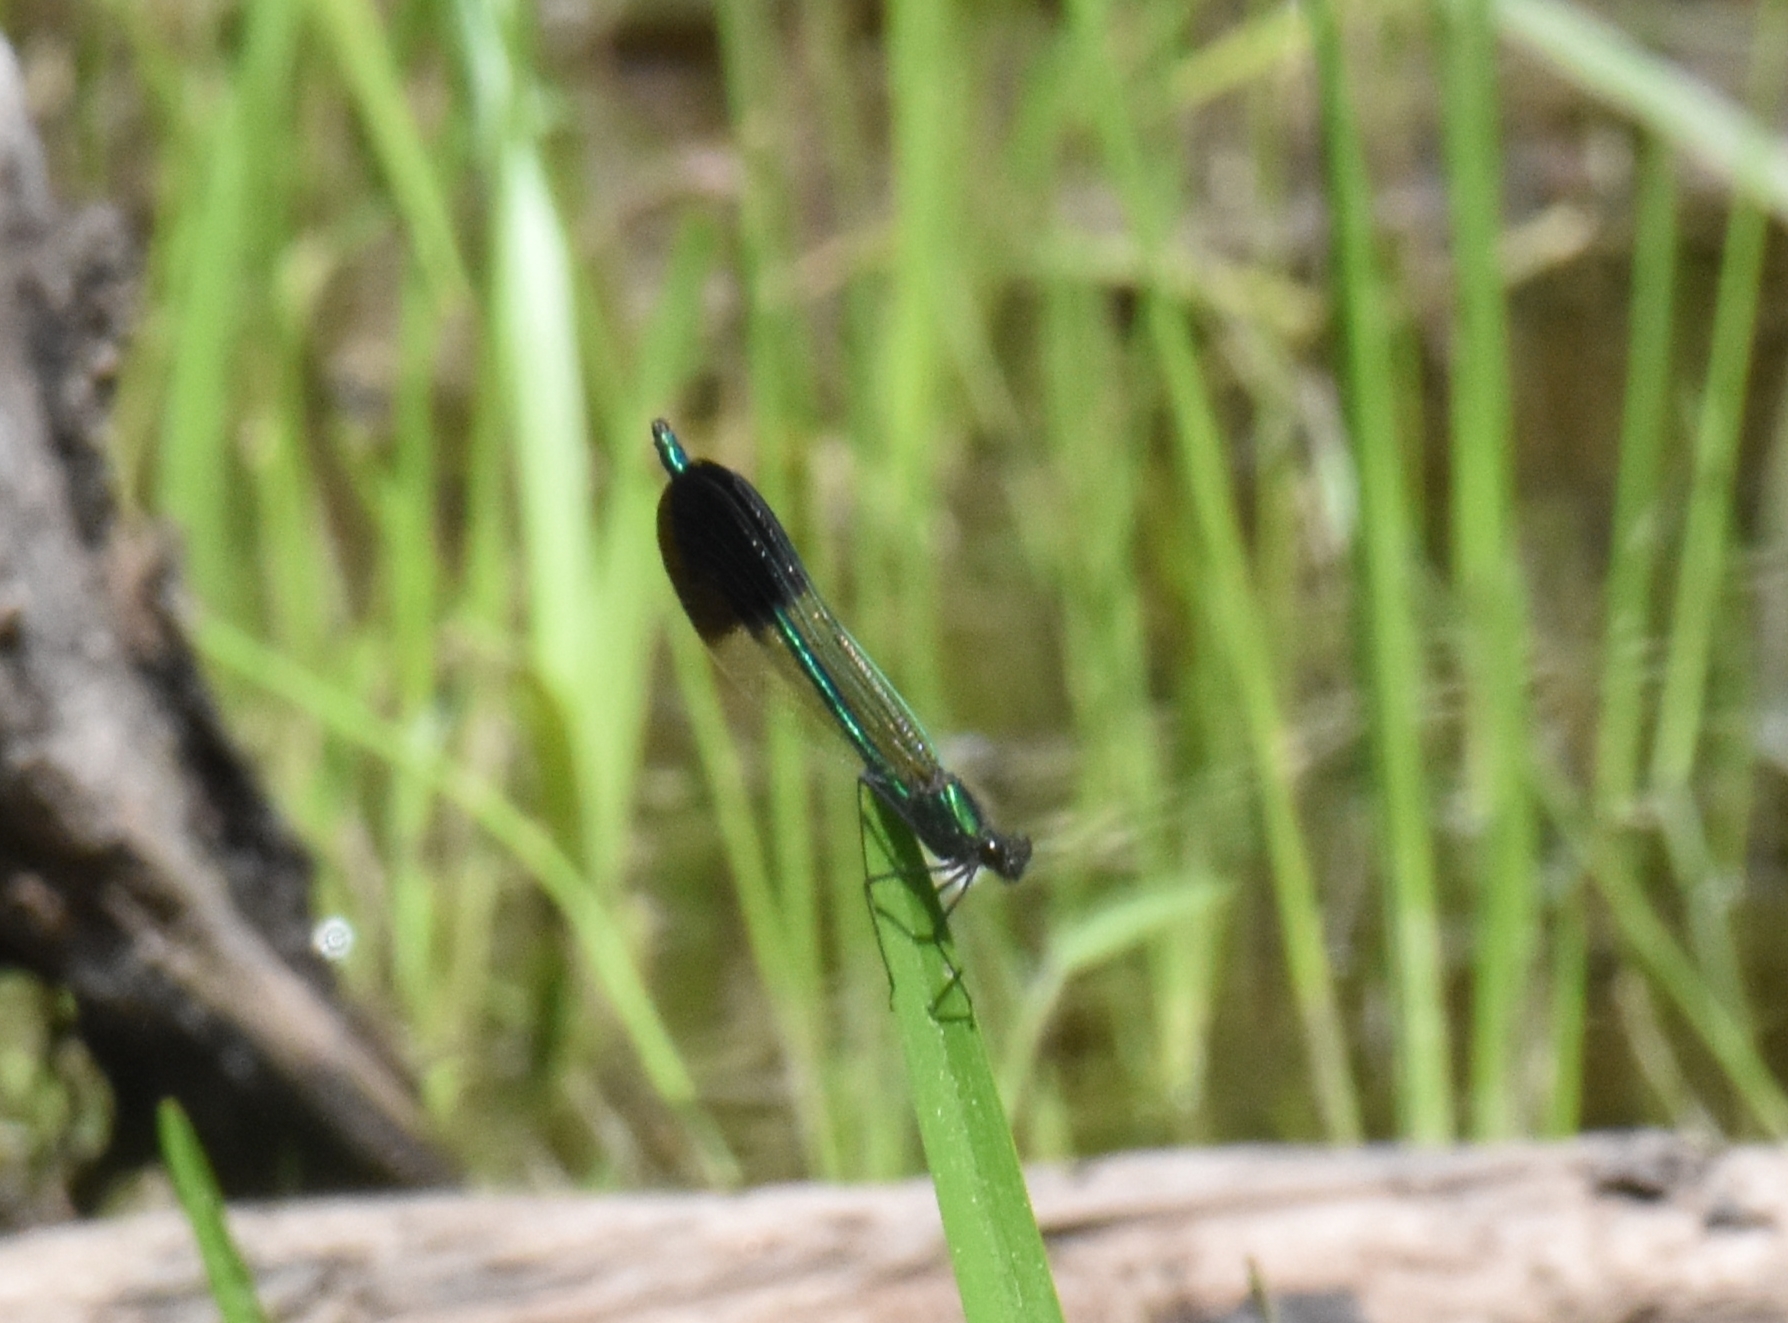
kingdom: Animalia
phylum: Arthropoda
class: Insecta
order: Odonata
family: Calopterygidae
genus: Calopteryx
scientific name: Calopteryx aequabilis
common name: River jewelwing
